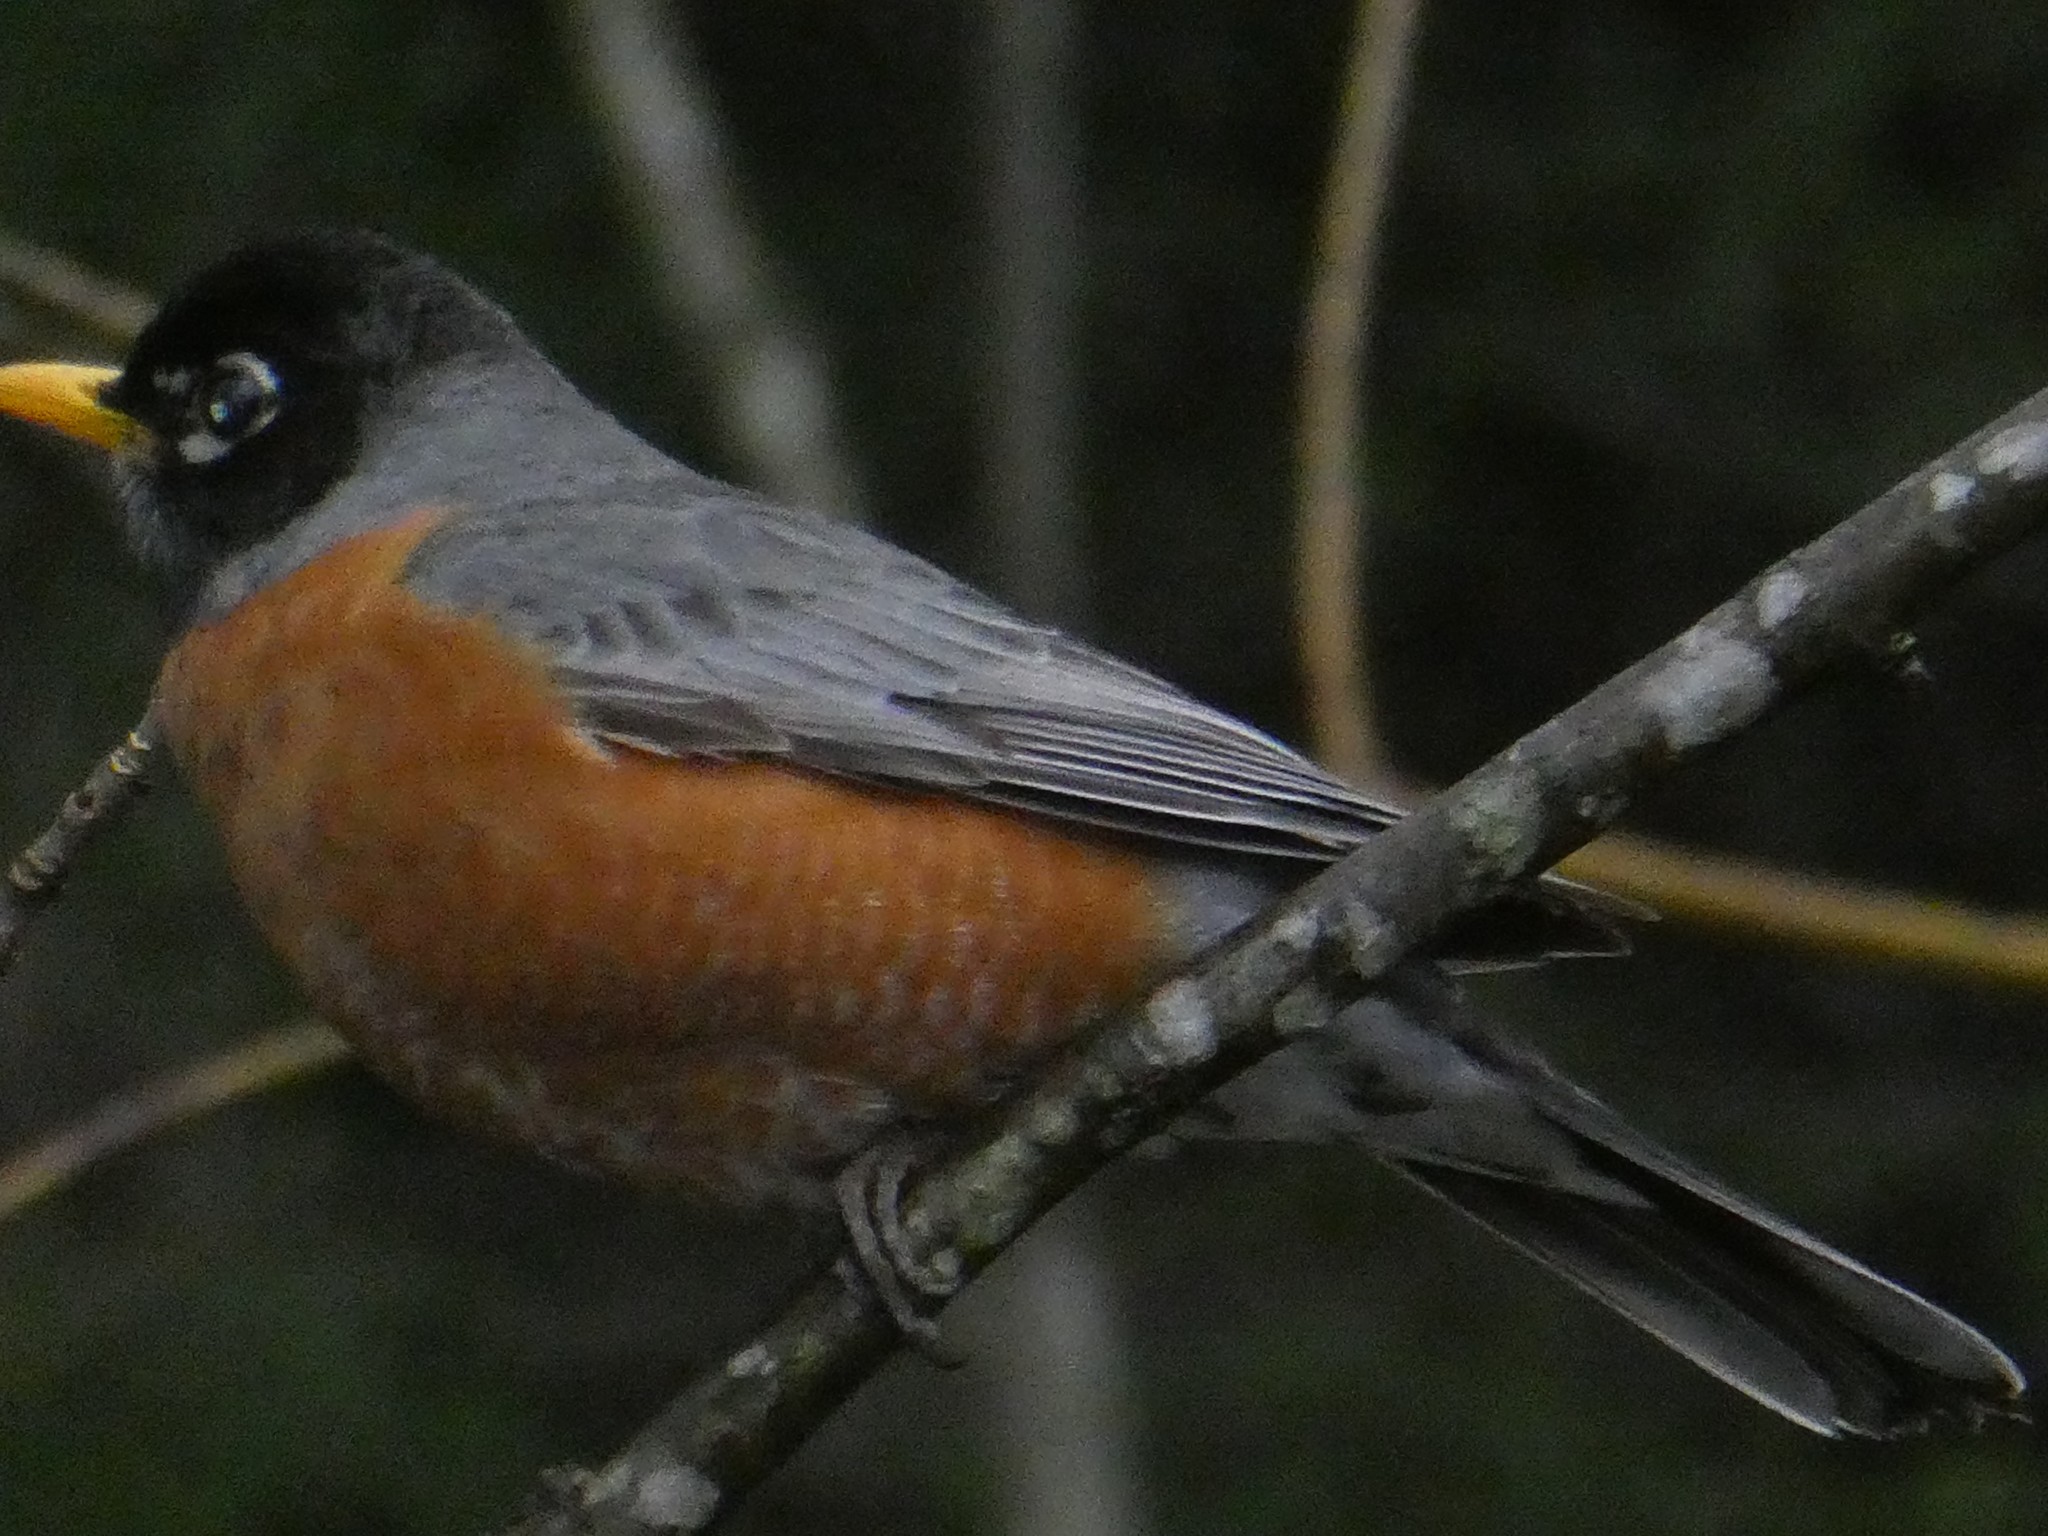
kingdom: Animalia
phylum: Chordata
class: Aves
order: Passeriformes
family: Turdidae
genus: Turdus
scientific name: Turdus migratorius
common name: American robin
